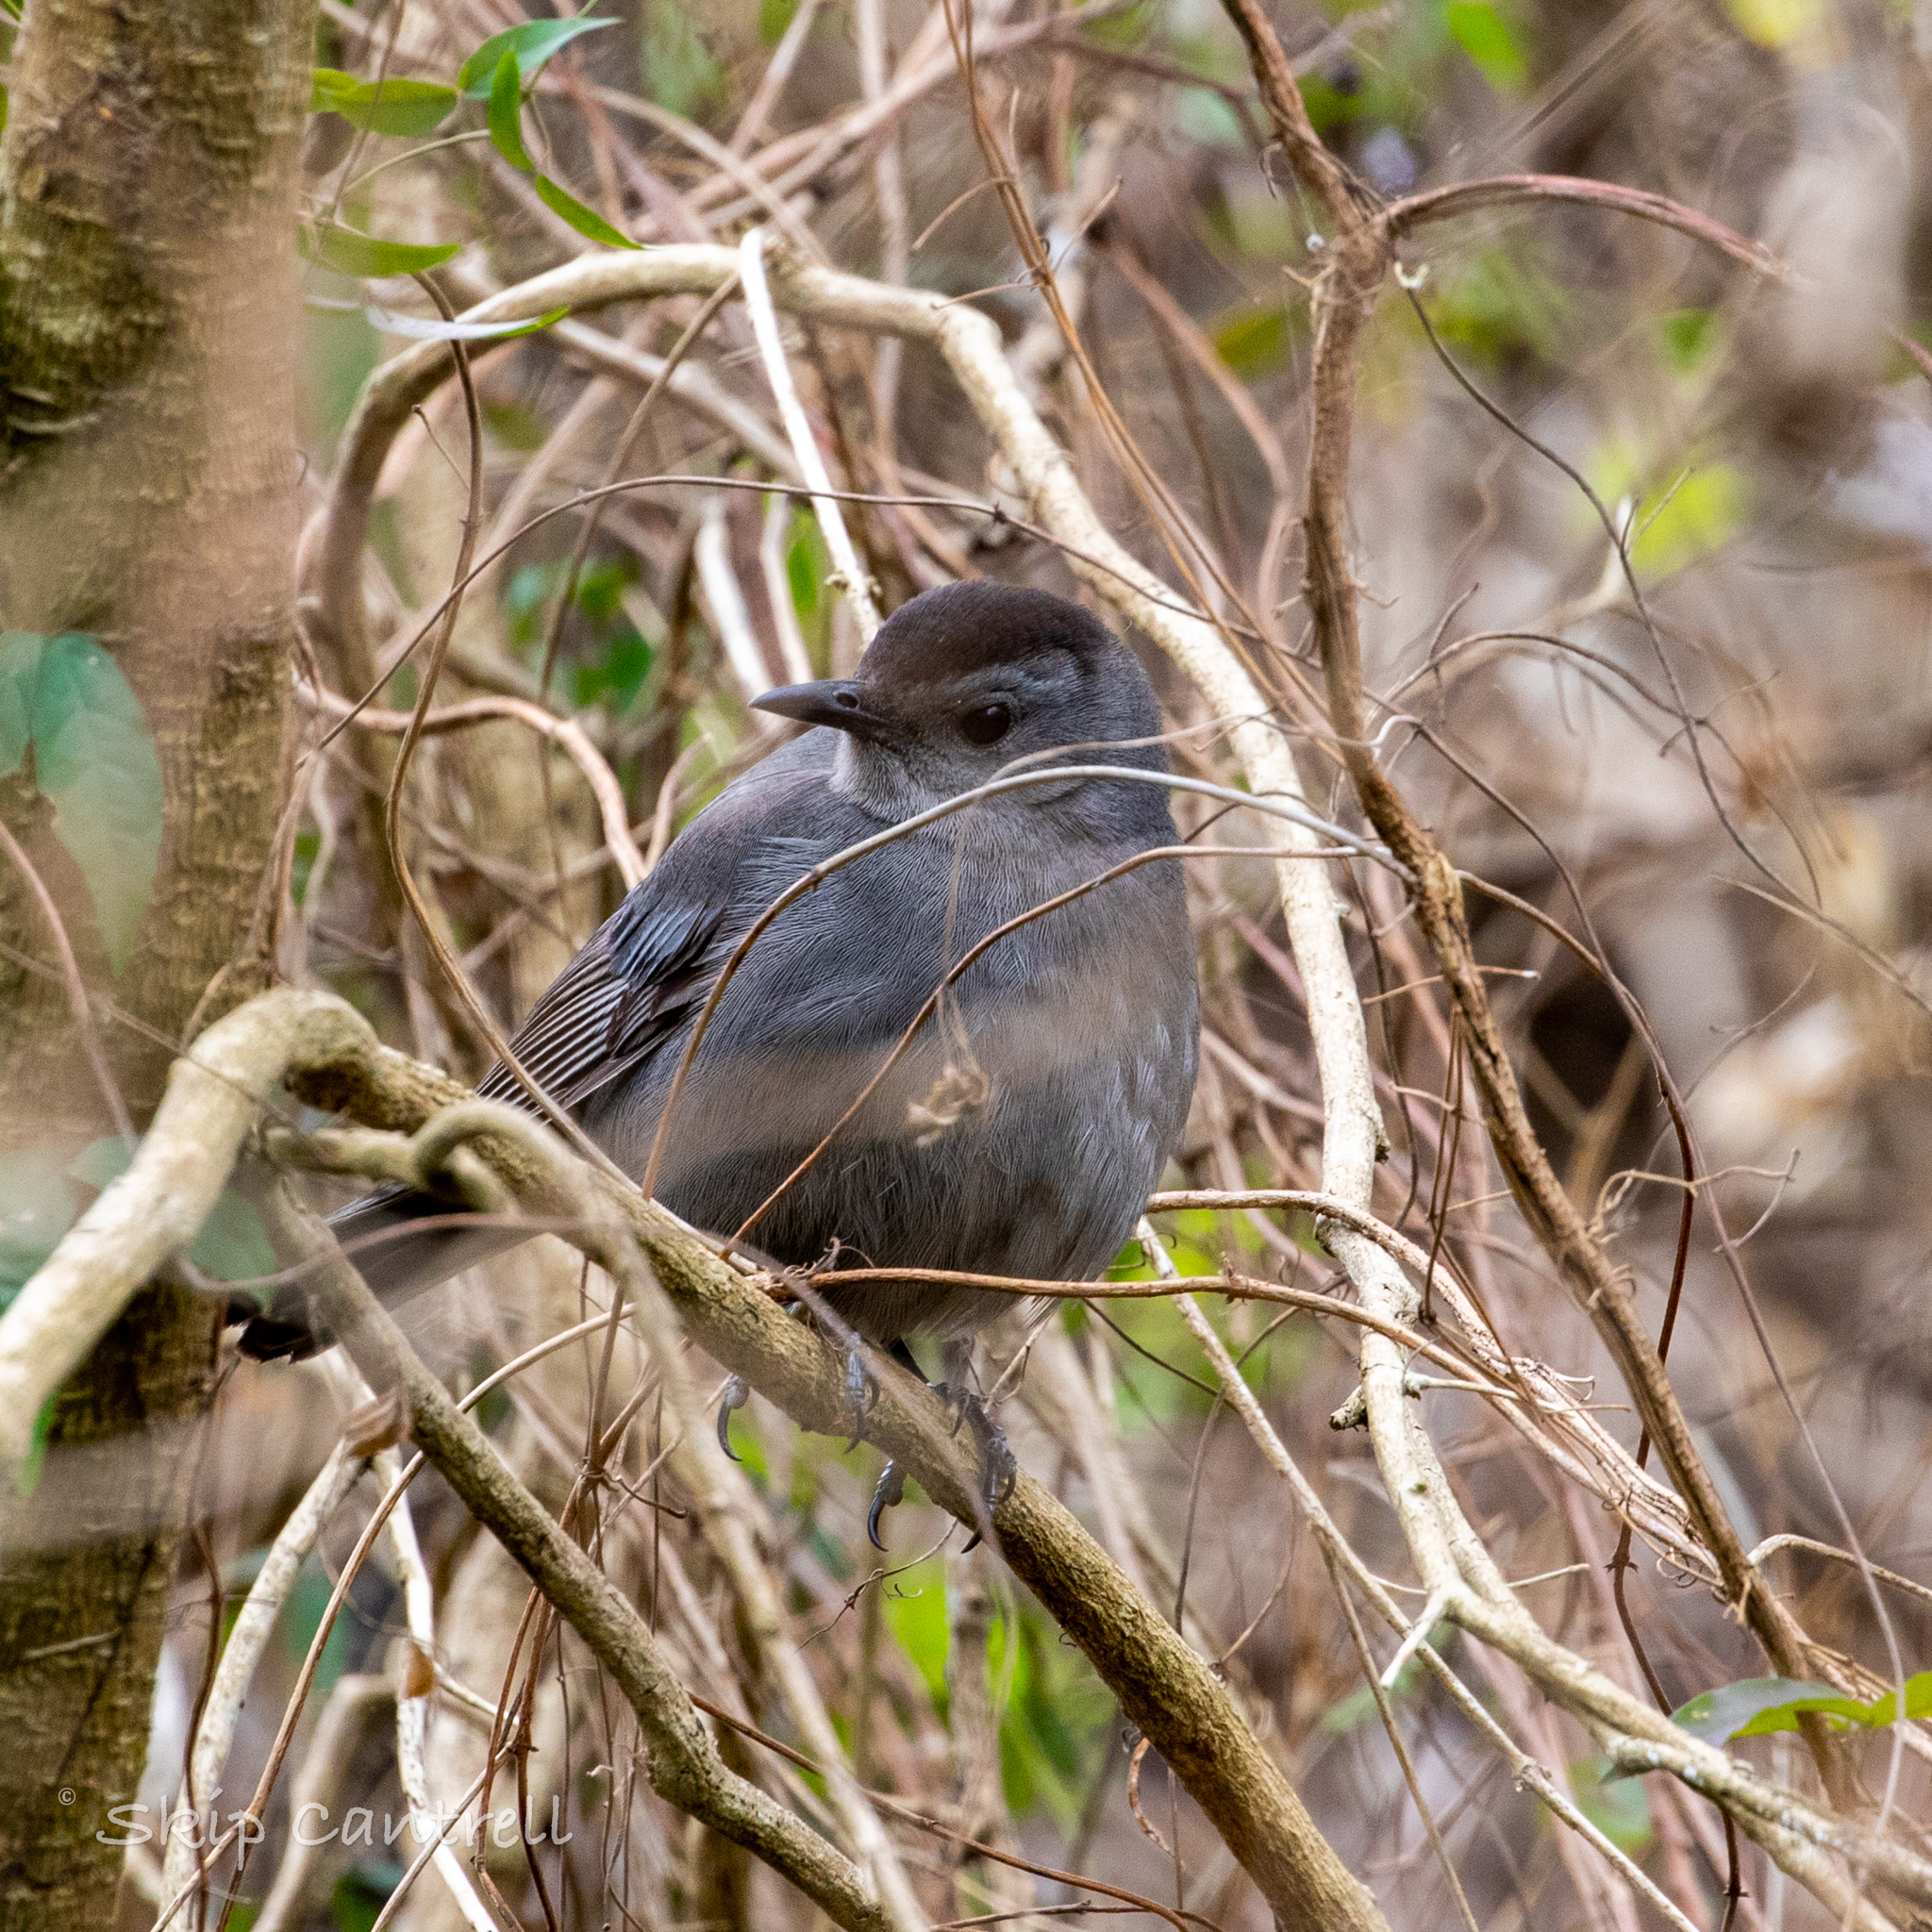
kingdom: Animalia
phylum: Chordata
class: Aves
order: Passeriformes
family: Mimidae
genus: Dumetella
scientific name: Dumetella carolinensis
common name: Gray catbird
